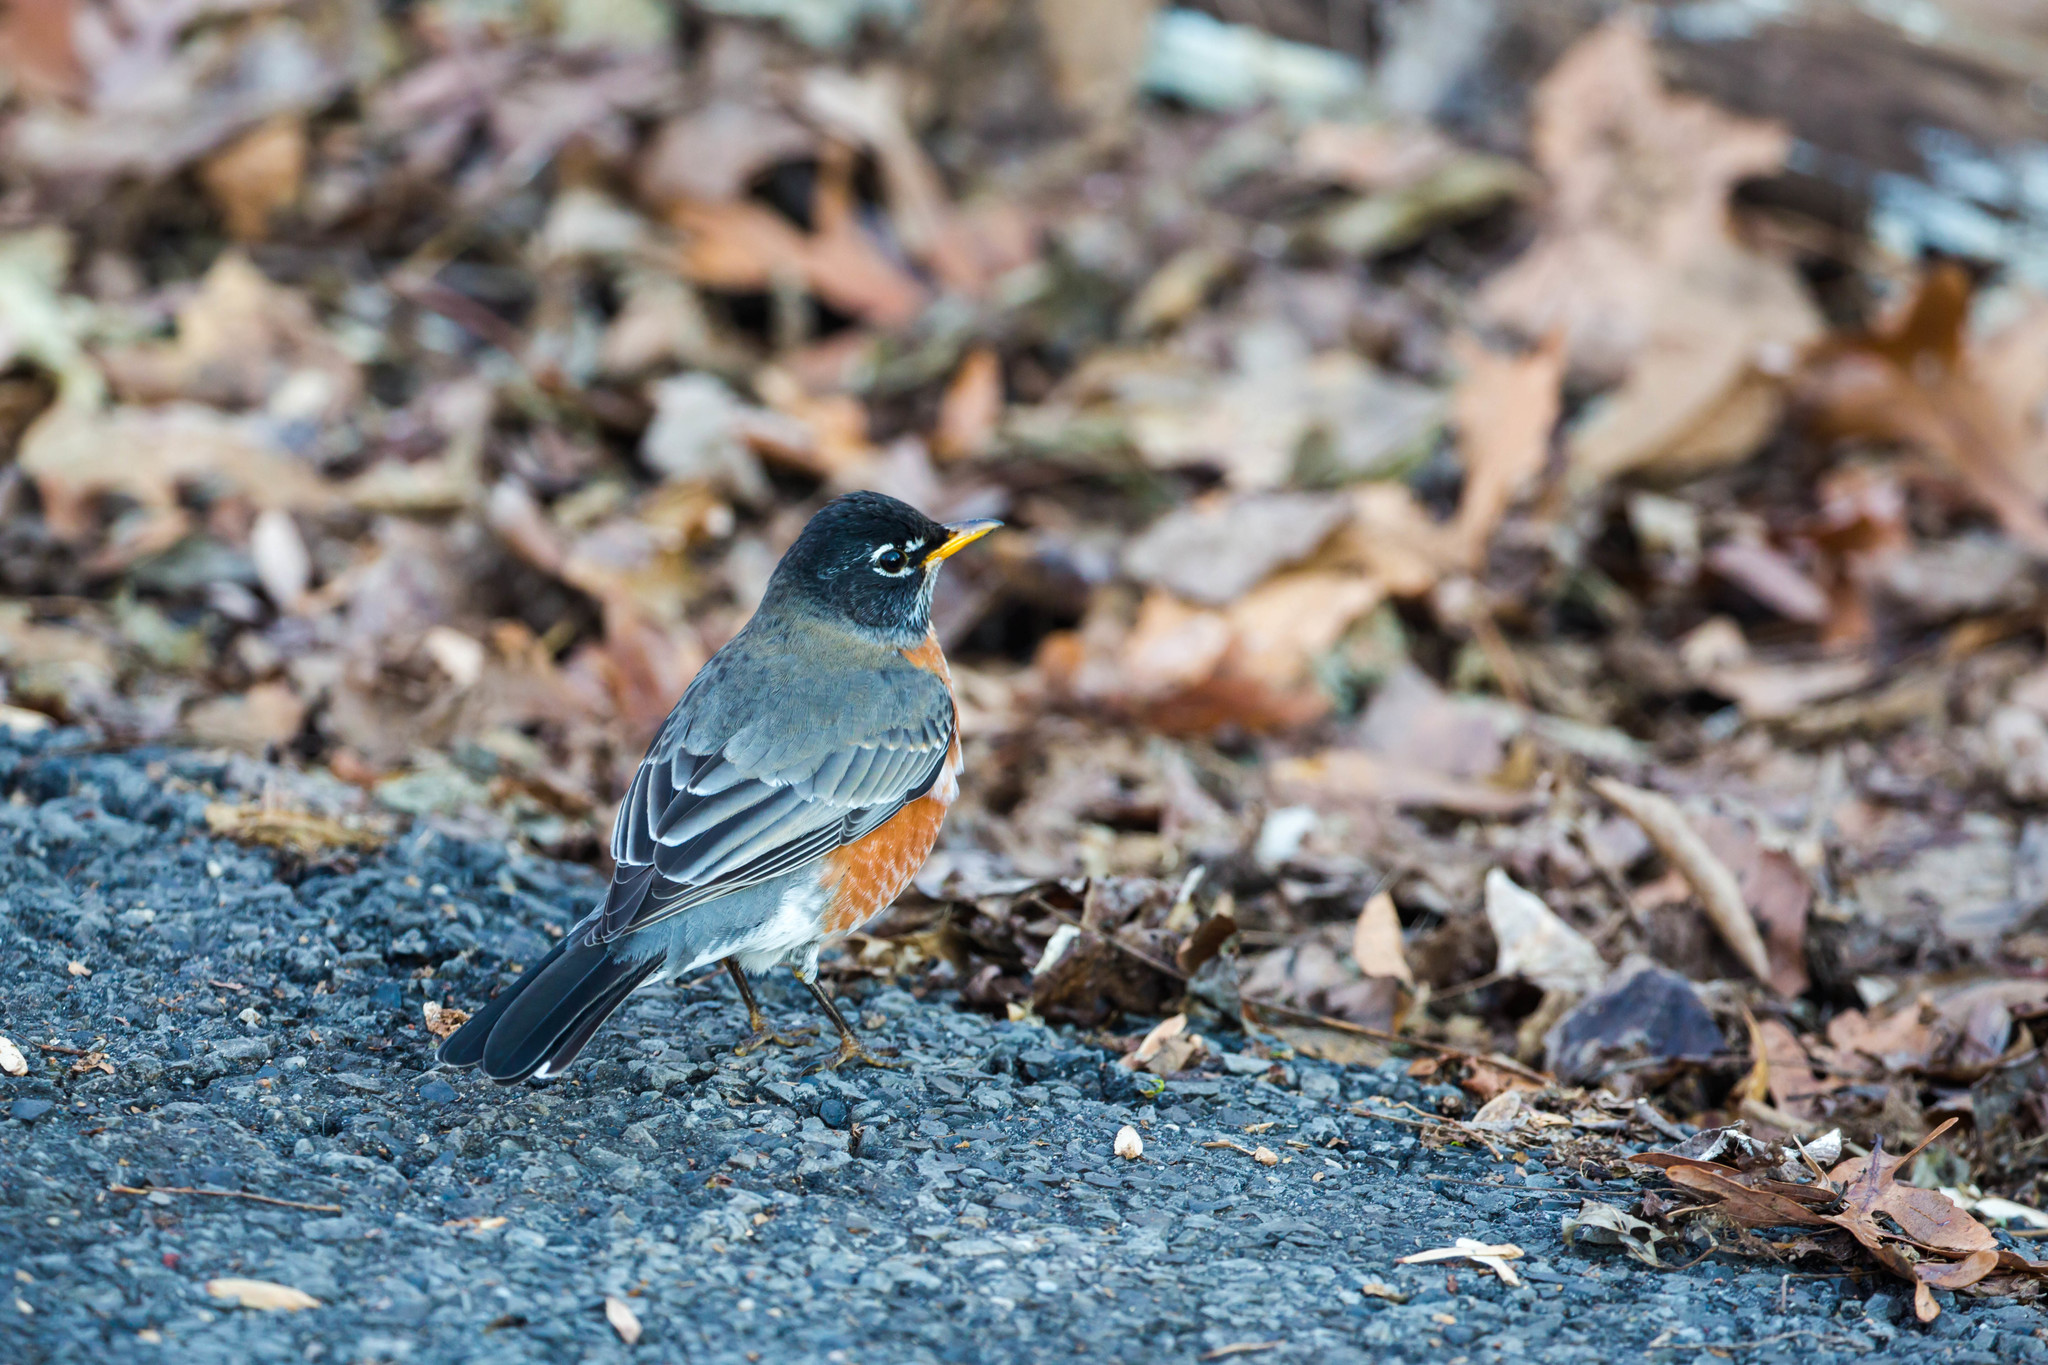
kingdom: Animalia
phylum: Chordata
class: Aves
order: Passeriformes
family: Turdidae
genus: Turdus
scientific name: Turdus migratorius
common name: American robin
